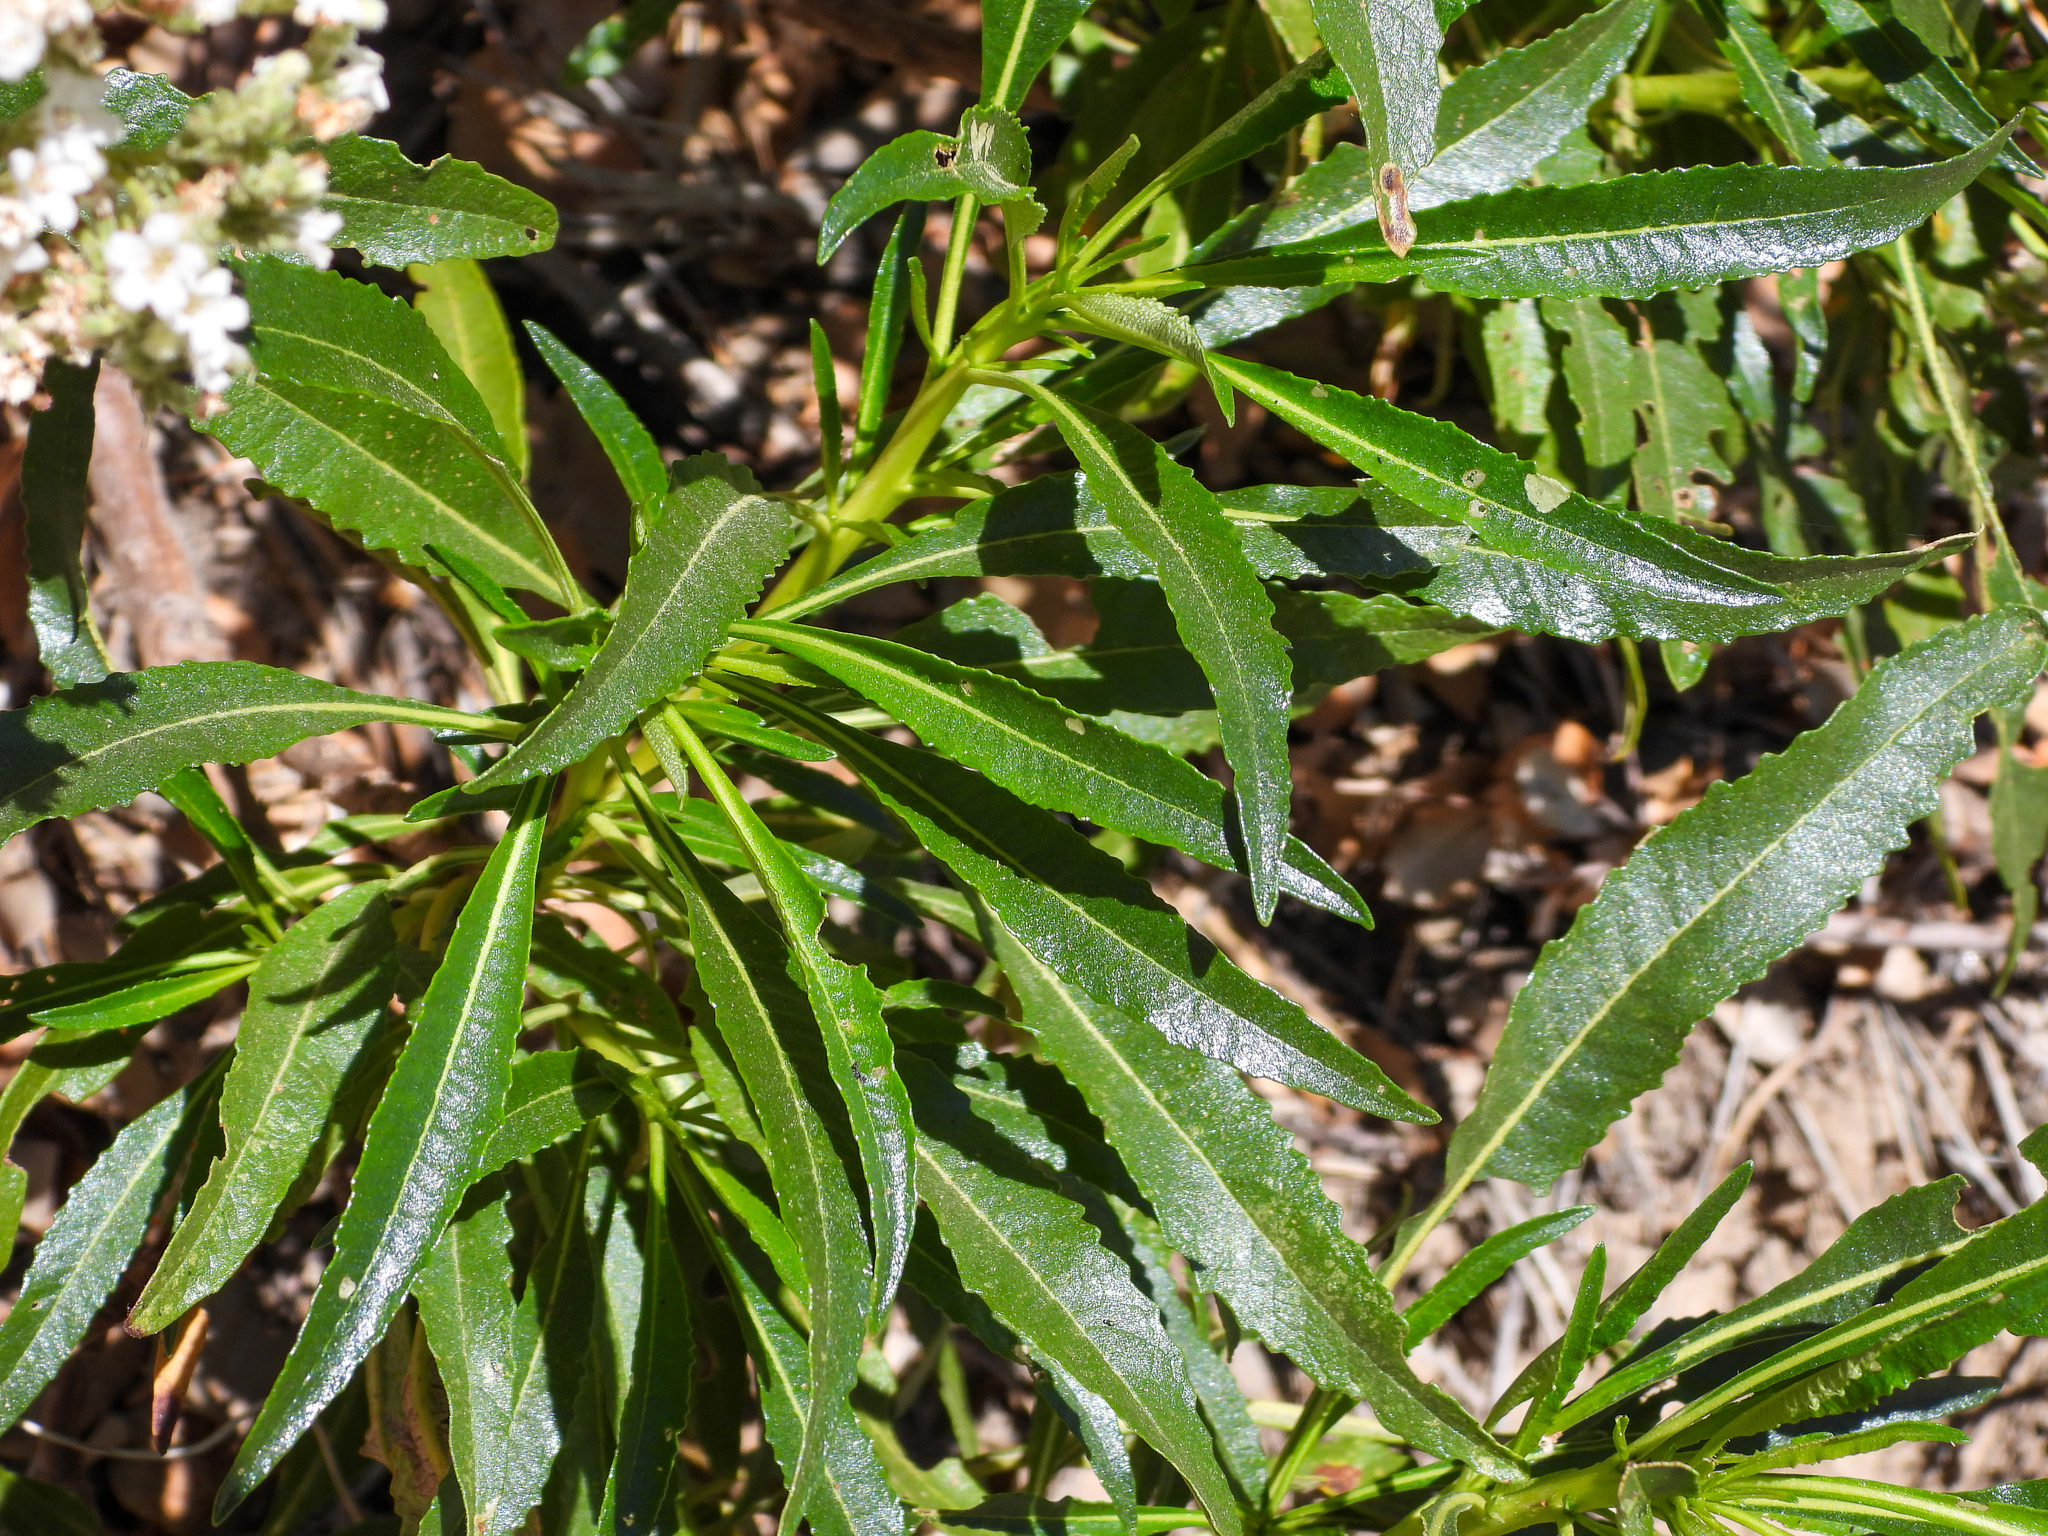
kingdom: Plantae
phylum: Tracheophyta
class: Magnoliopsida
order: Boraginales
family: Namaceae
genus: Eriodictyon
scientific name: Eriodictyon trichocalyx
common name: Hairy yerba-santa
